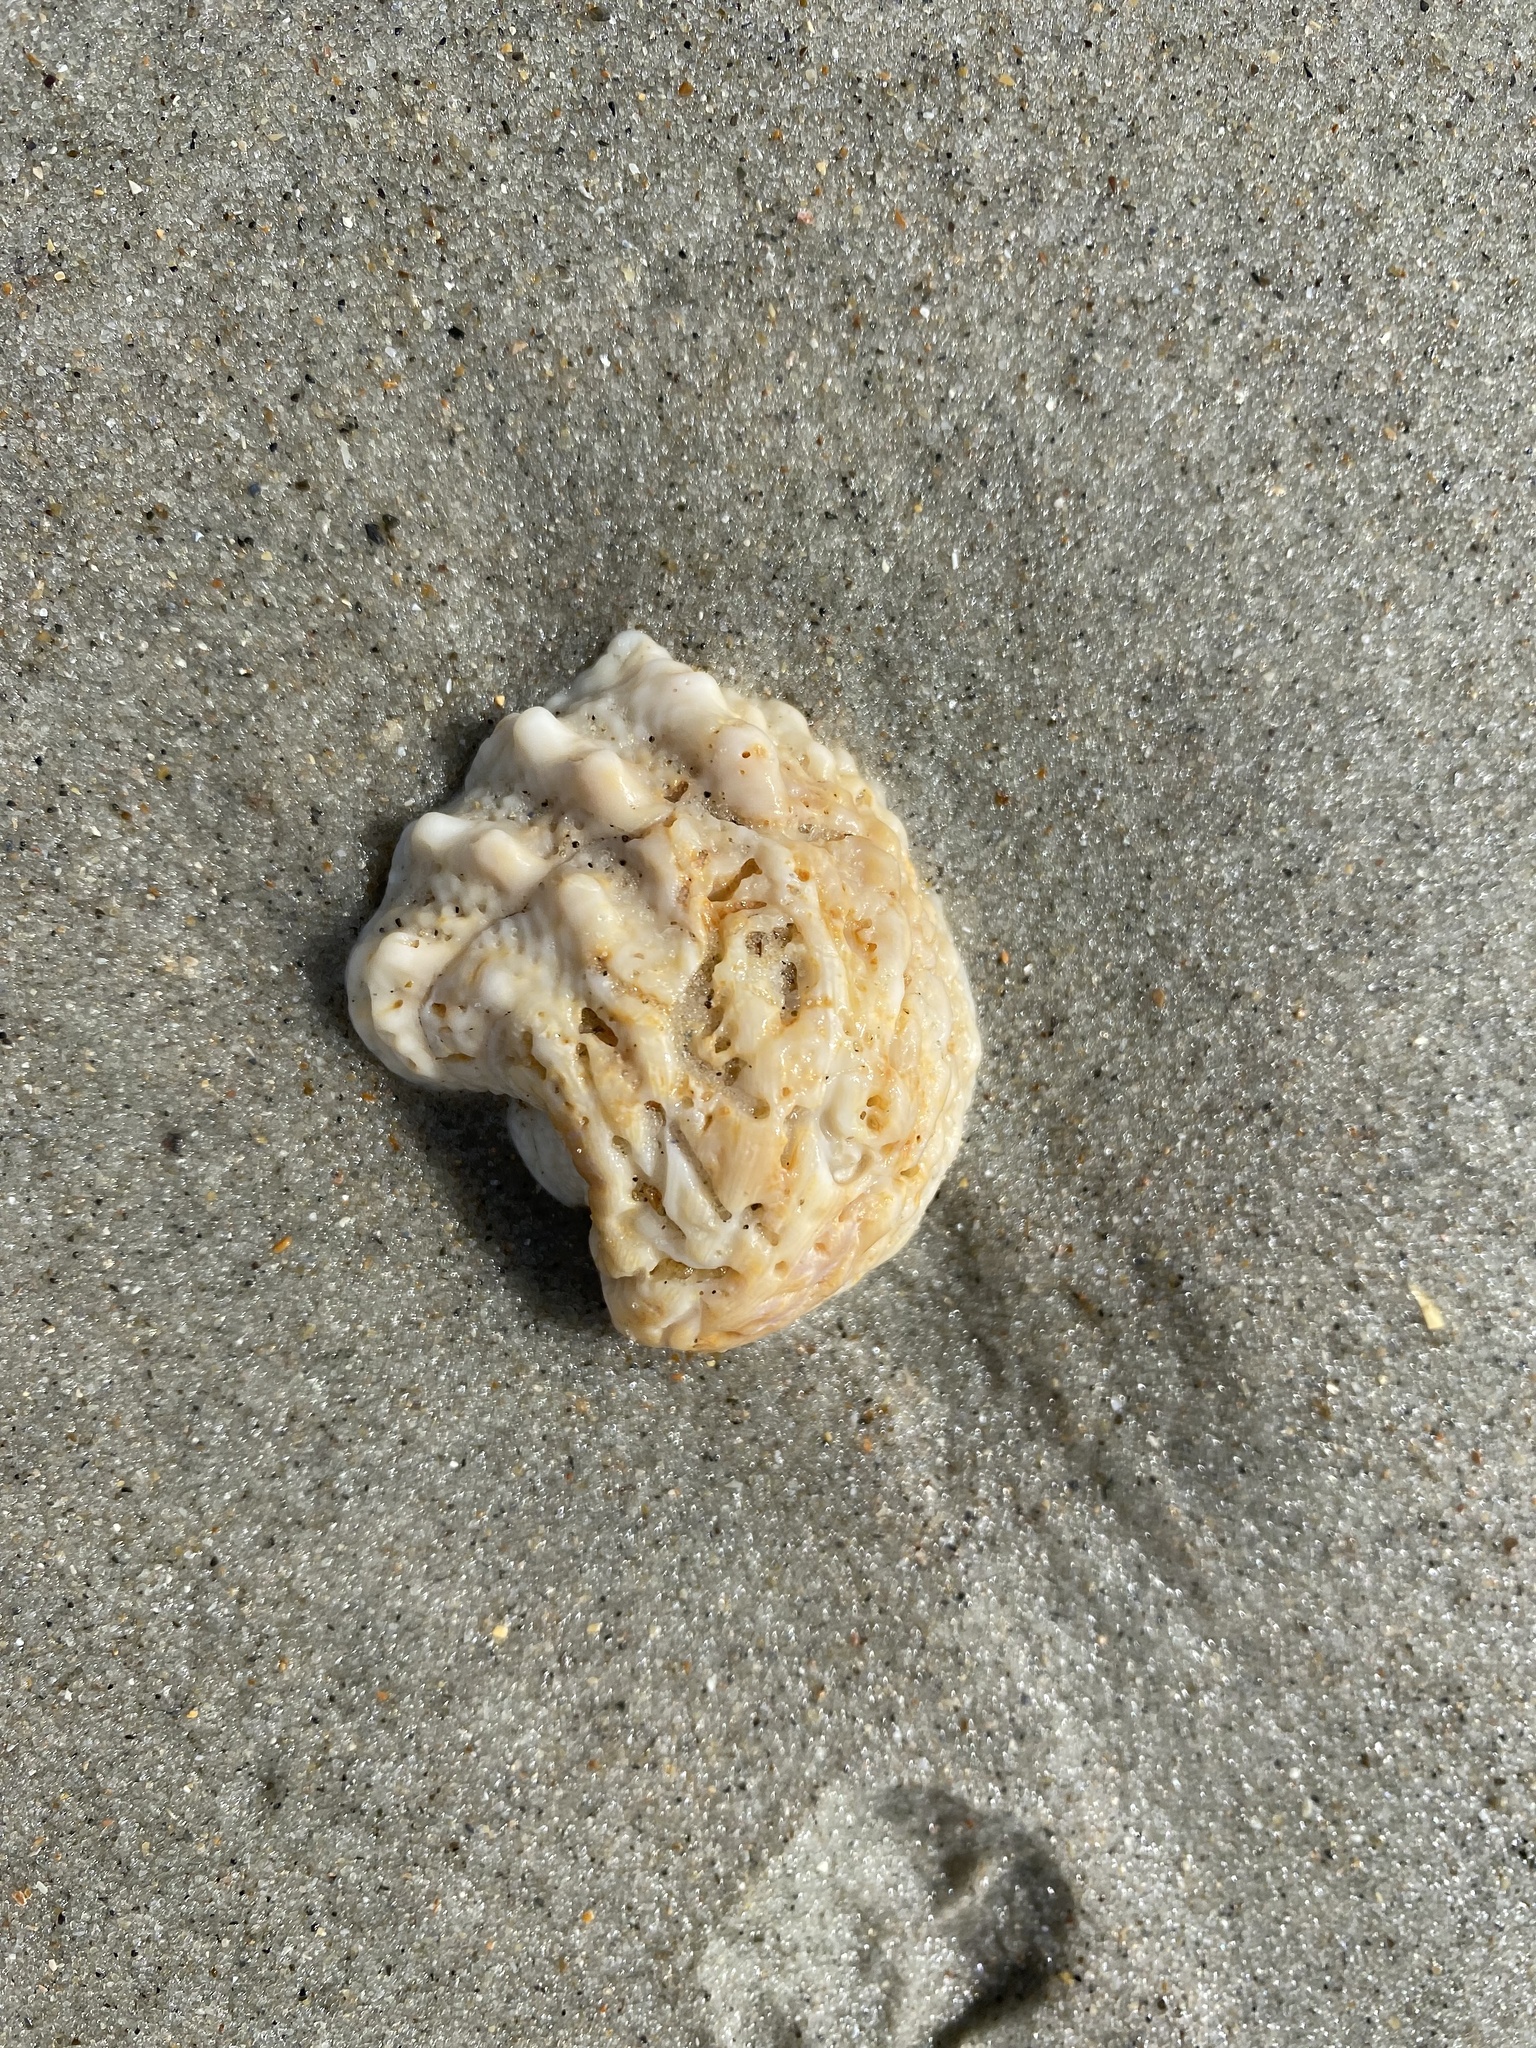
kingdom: Animalia
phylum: Mollusca
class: Bivalvia
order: Venerida
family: Chamidae
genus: Arcinella
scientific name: Arcinella cornuta
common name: Florida spiny jewel box
